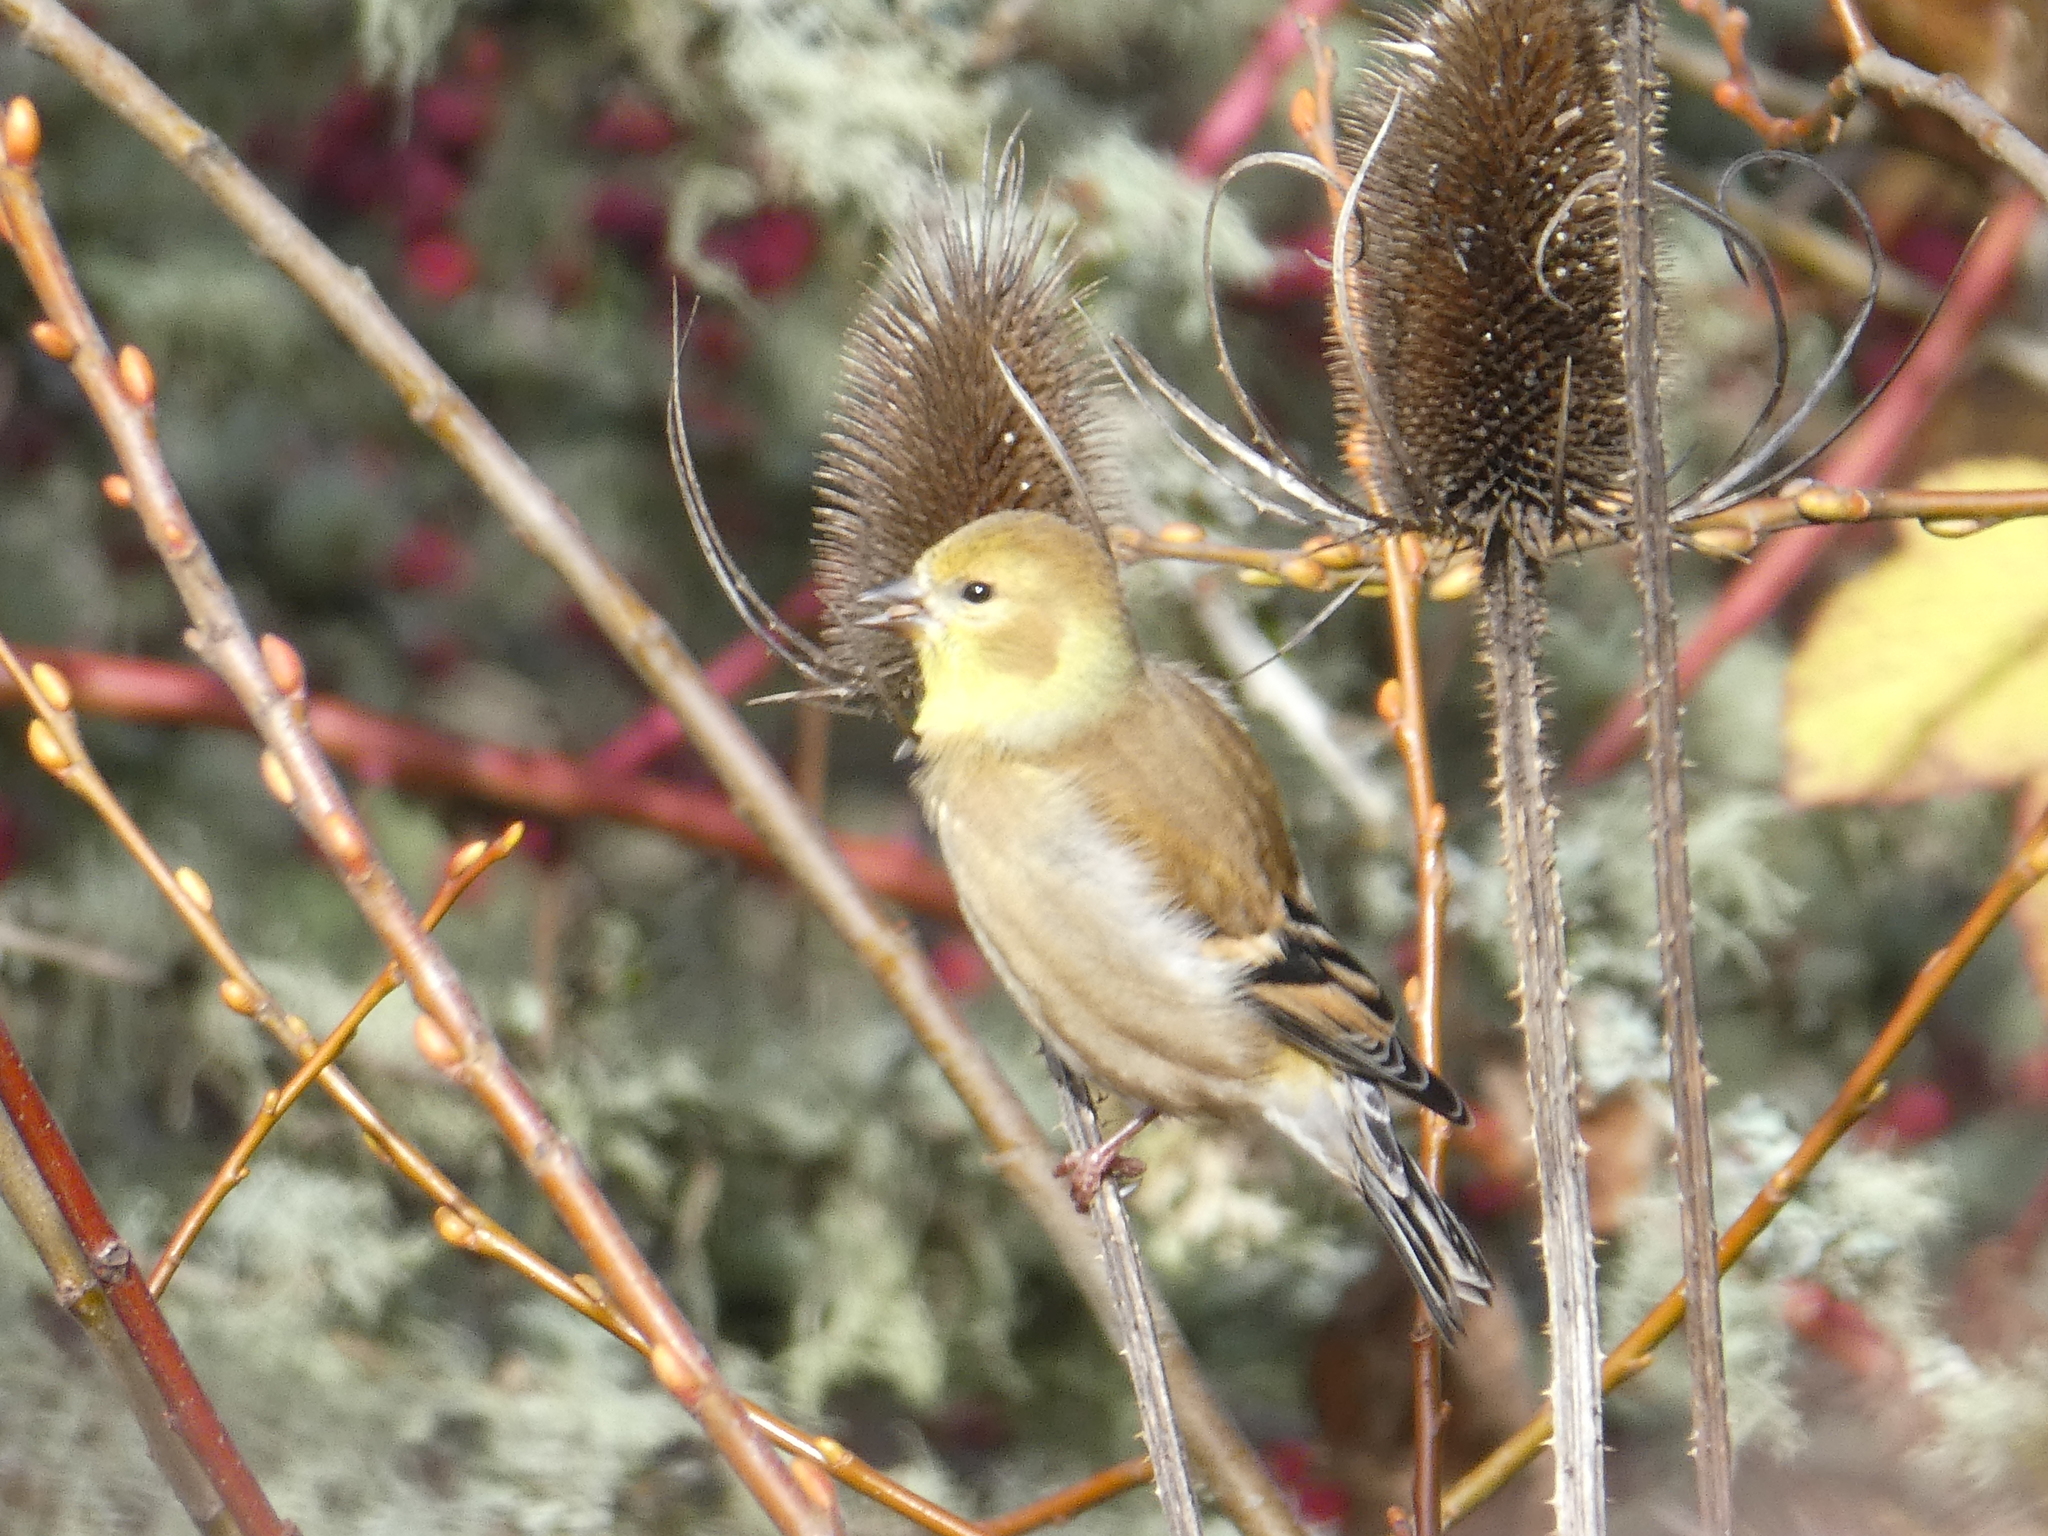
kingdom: Plantae
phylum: Tracheophyta
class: Magnoliopsida
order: Dipsacales
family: Caprifoliaceae
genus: Dipsacus
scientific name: Dipsacus fullonum
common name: Teasel
